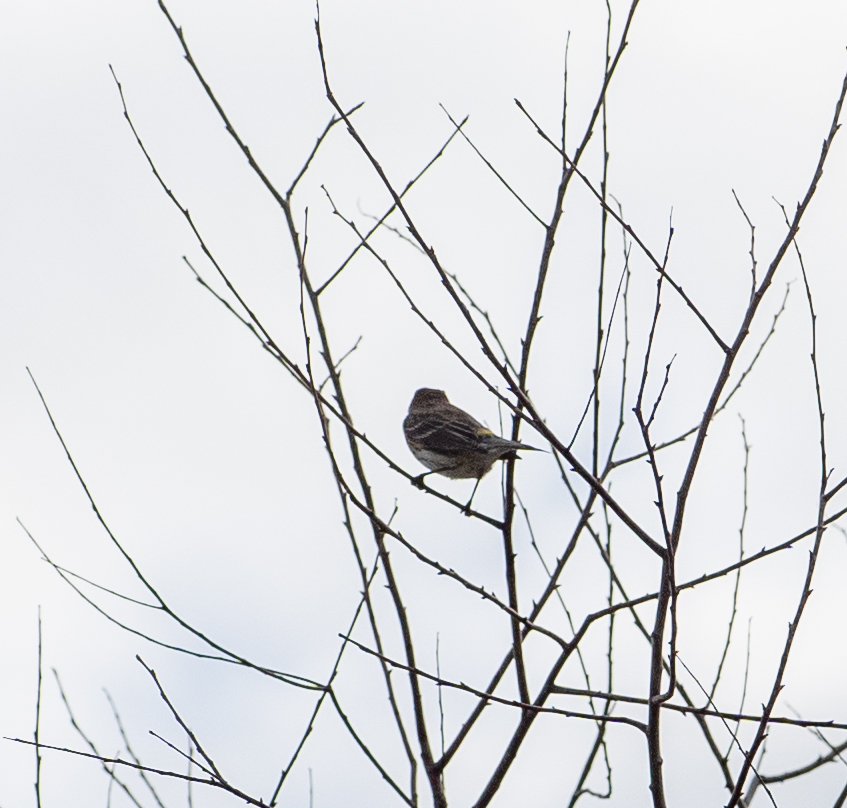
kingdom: Animalia
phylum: Chordata
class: Aves
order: Passeriformes
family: Parulidae
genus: Setophaga
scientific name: Setophaga coronata
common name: Myrtle warbler
